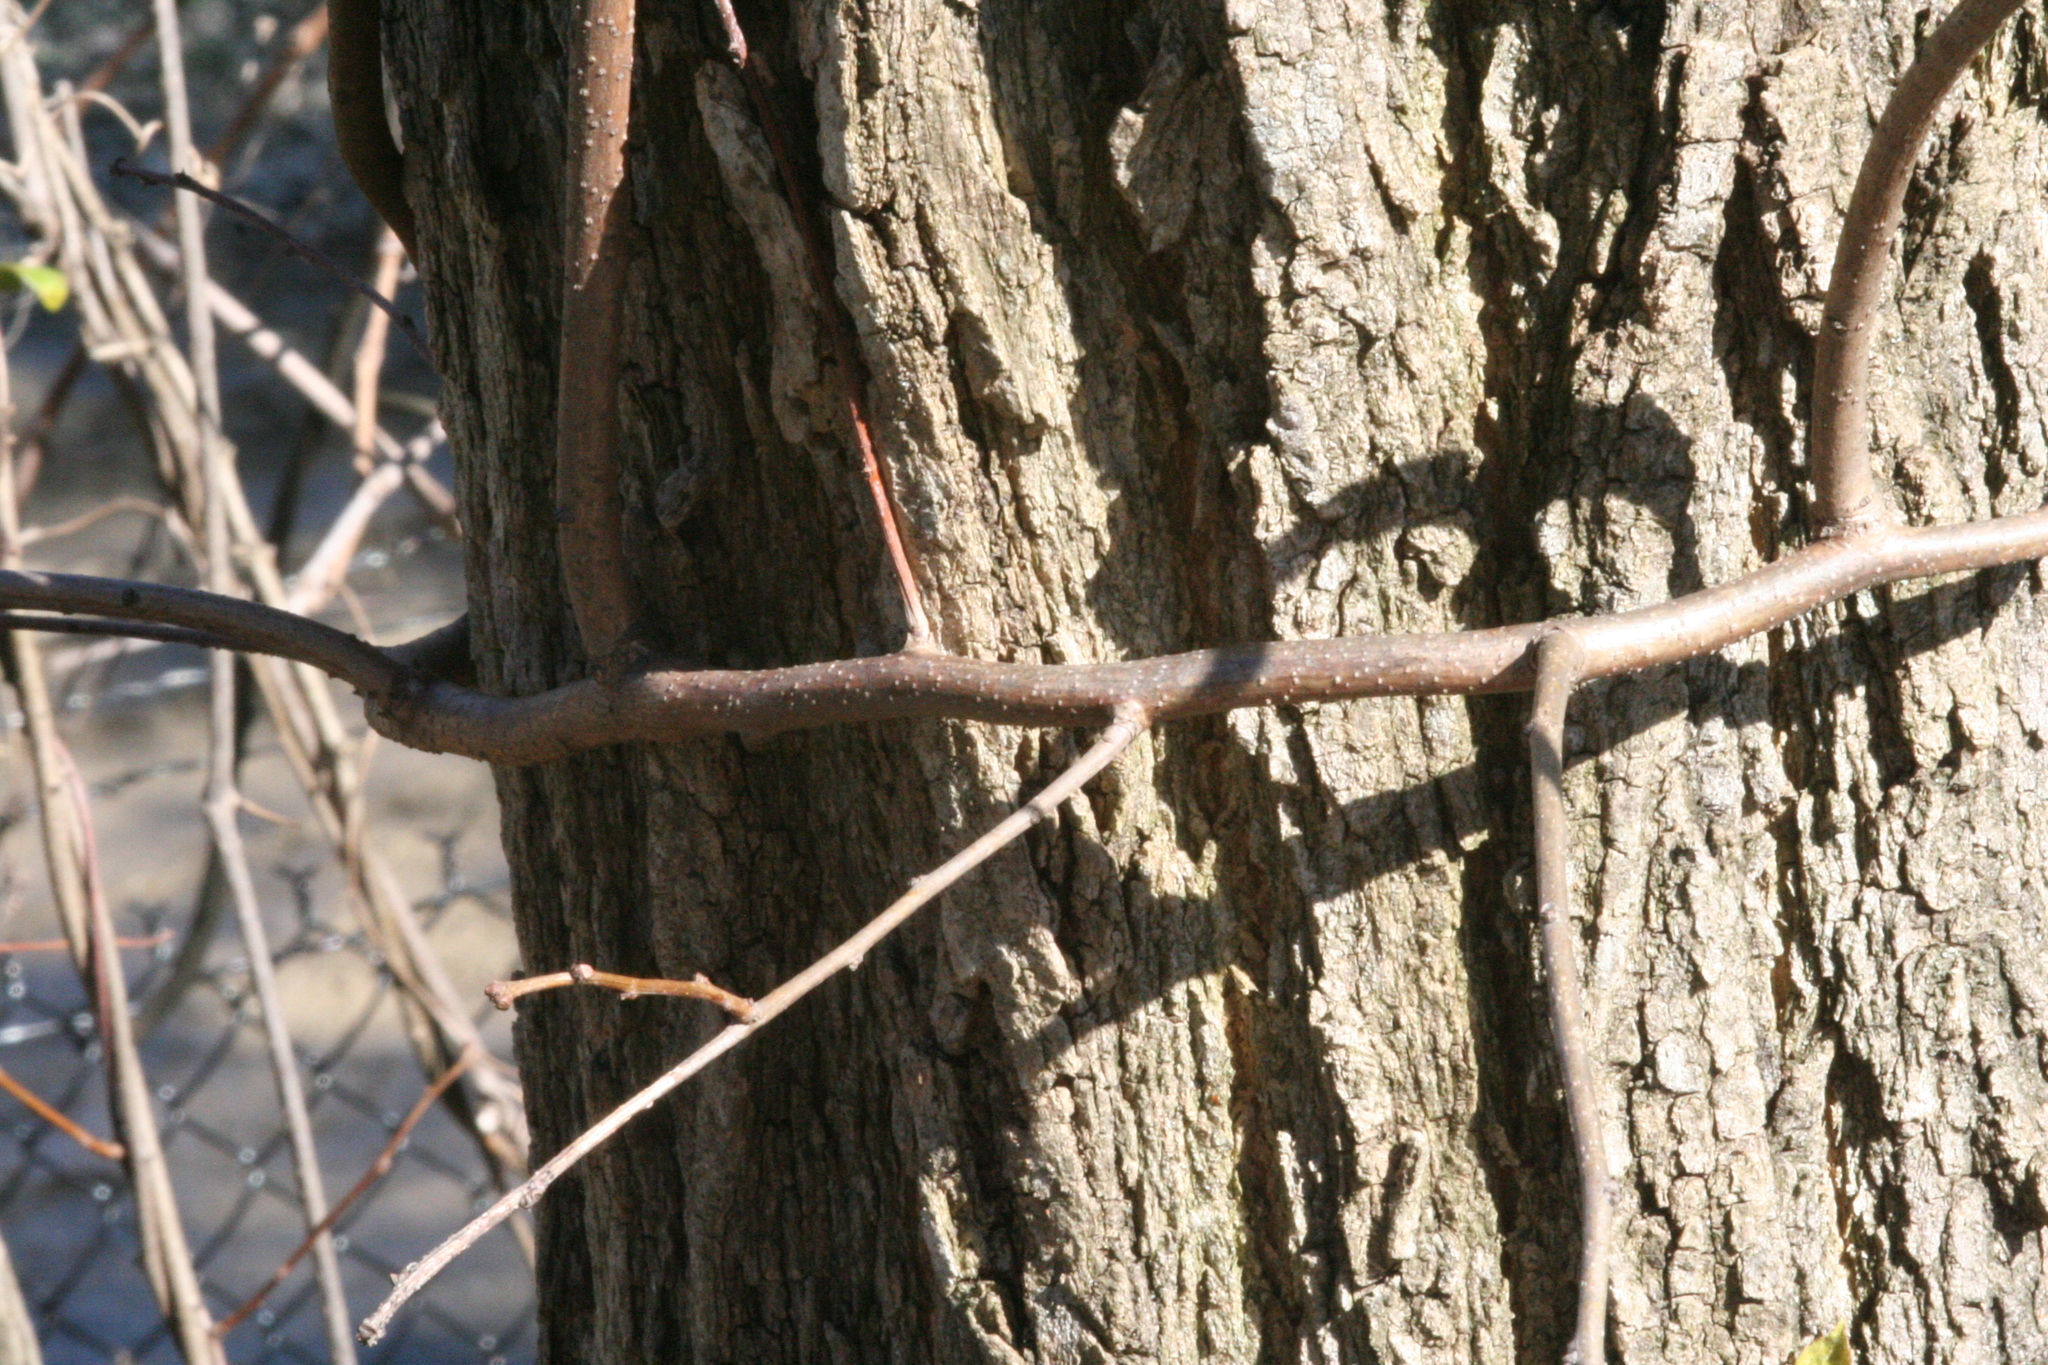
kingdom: Plantae
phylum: Tracheophyta
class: Magnoliopsida
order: Celastrales
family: Celastraceae
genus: Celastrus
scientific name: Celastrus orbiculatus
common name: Oriental bittersweet
